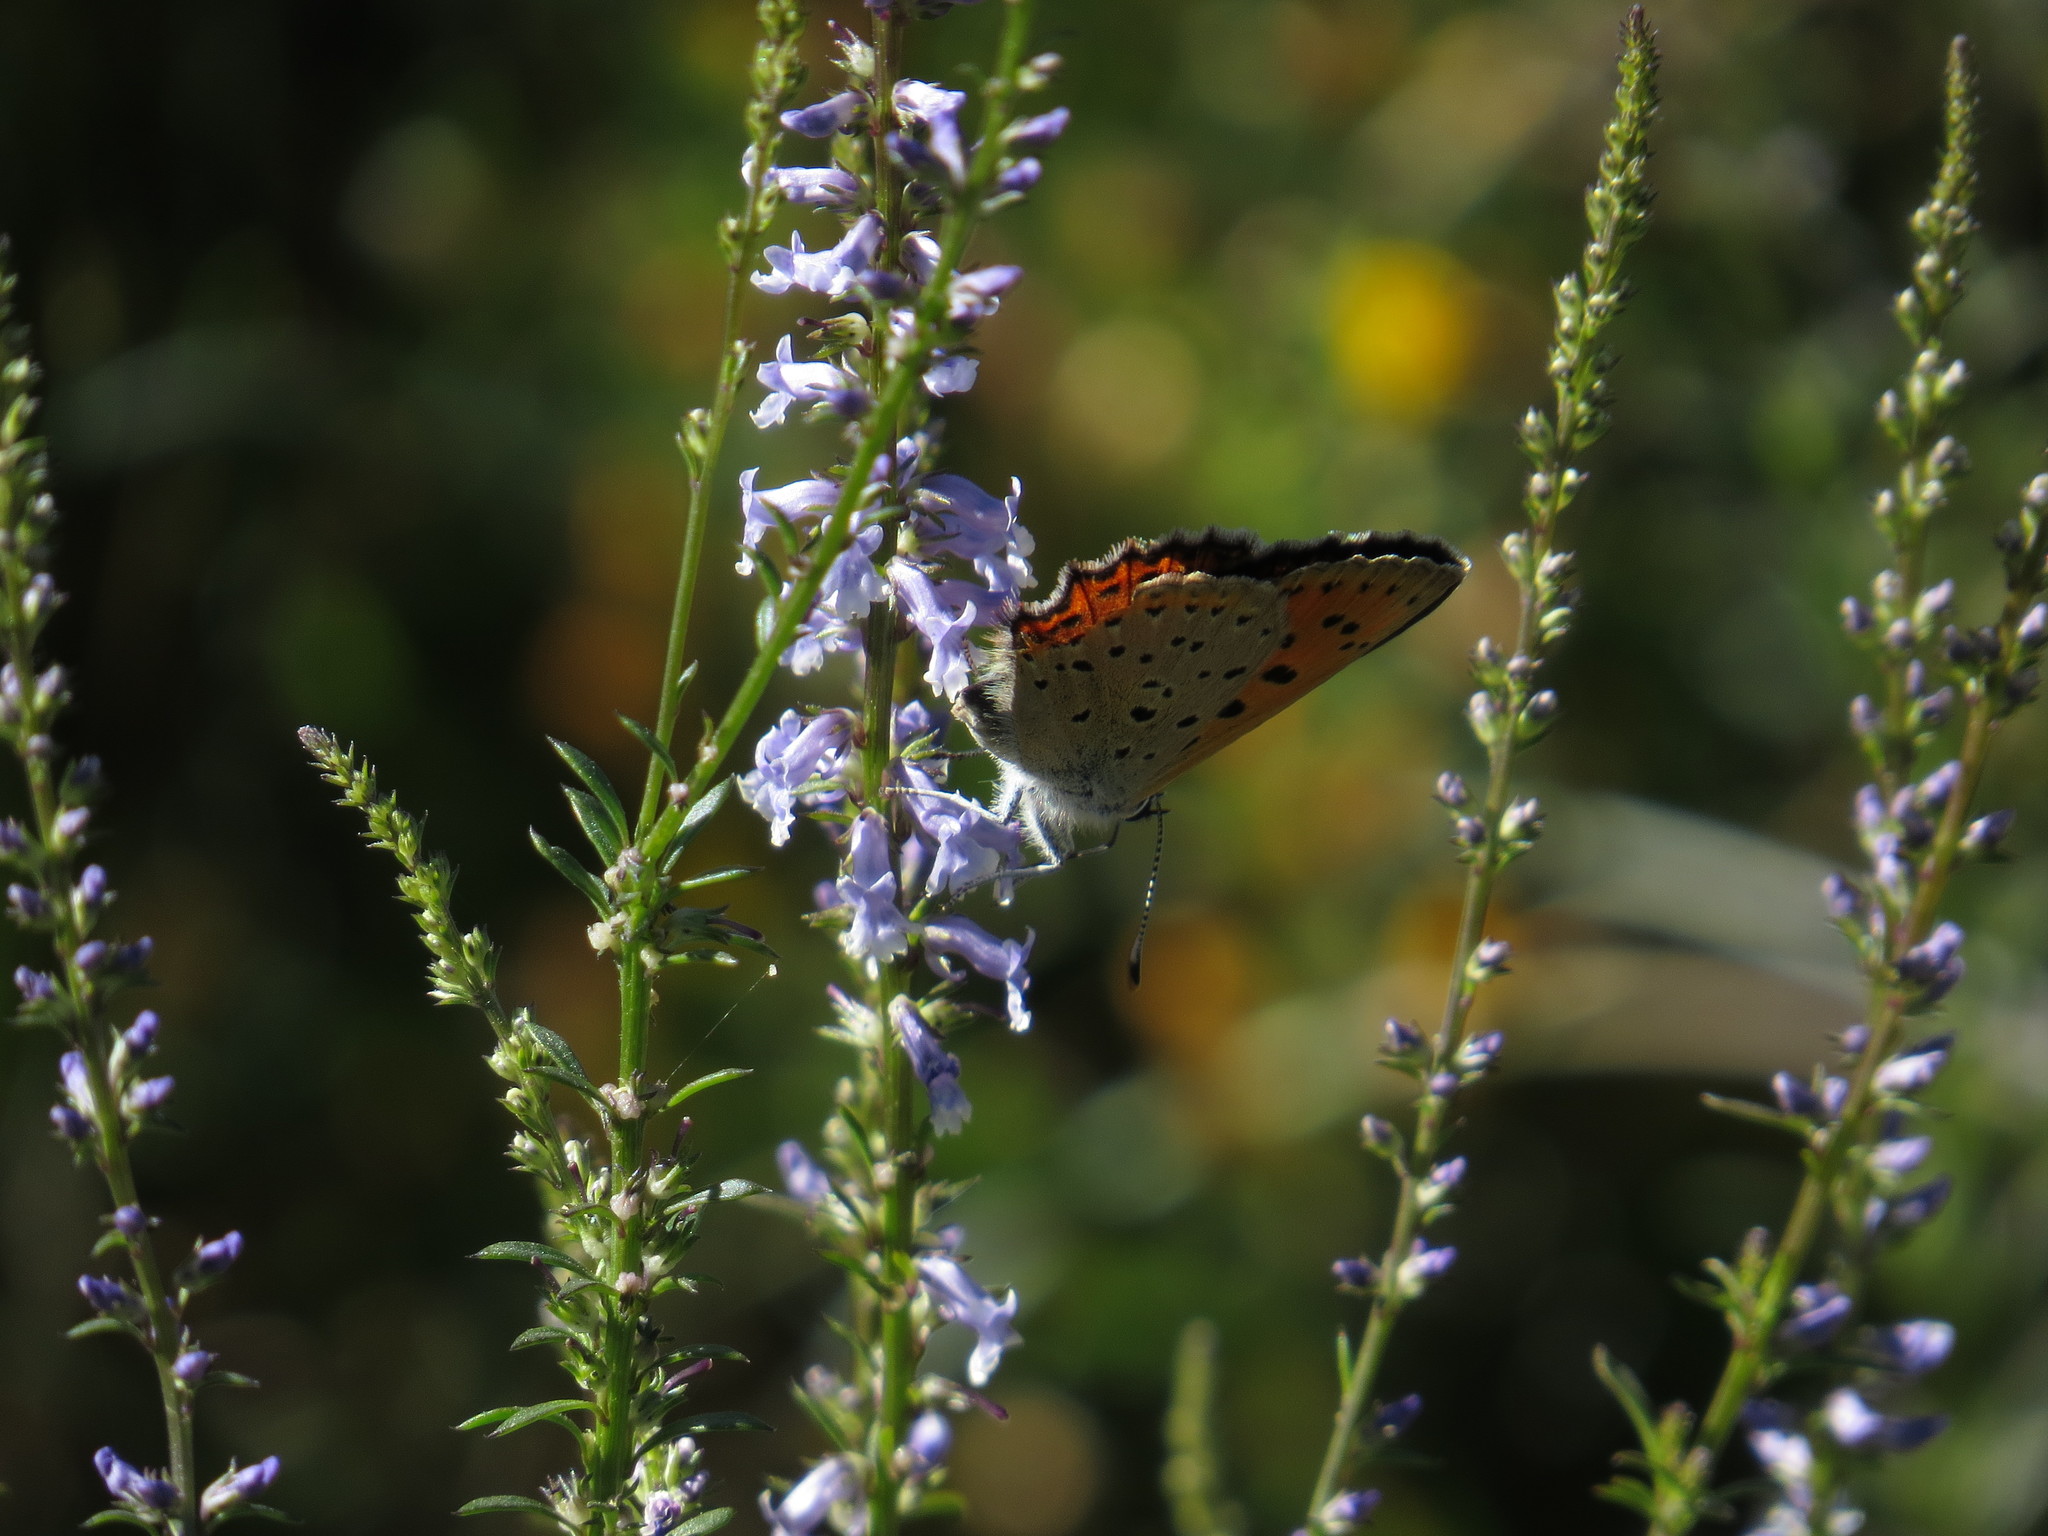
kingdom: Animalia
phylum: Arthropoda
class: Insecta
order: Lepidoptera
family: Lycaenidae
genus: Lycaena
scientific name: Lycaena alciphron
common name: Purple-shot copper
